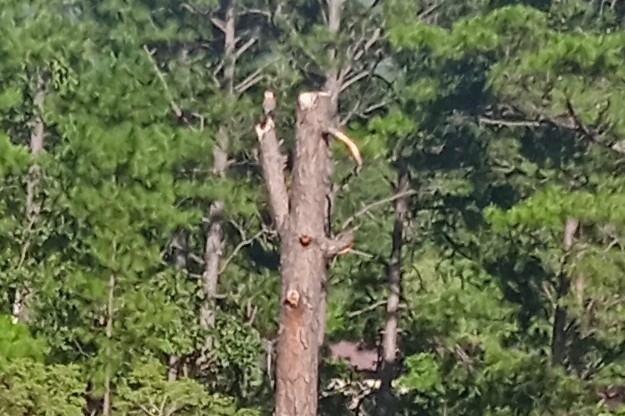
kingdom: Animalia
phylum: Chordata
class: Aves
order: Falconiformes
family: Falconidae
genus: Falco
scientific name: Falco sparverius
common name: American kestrel
